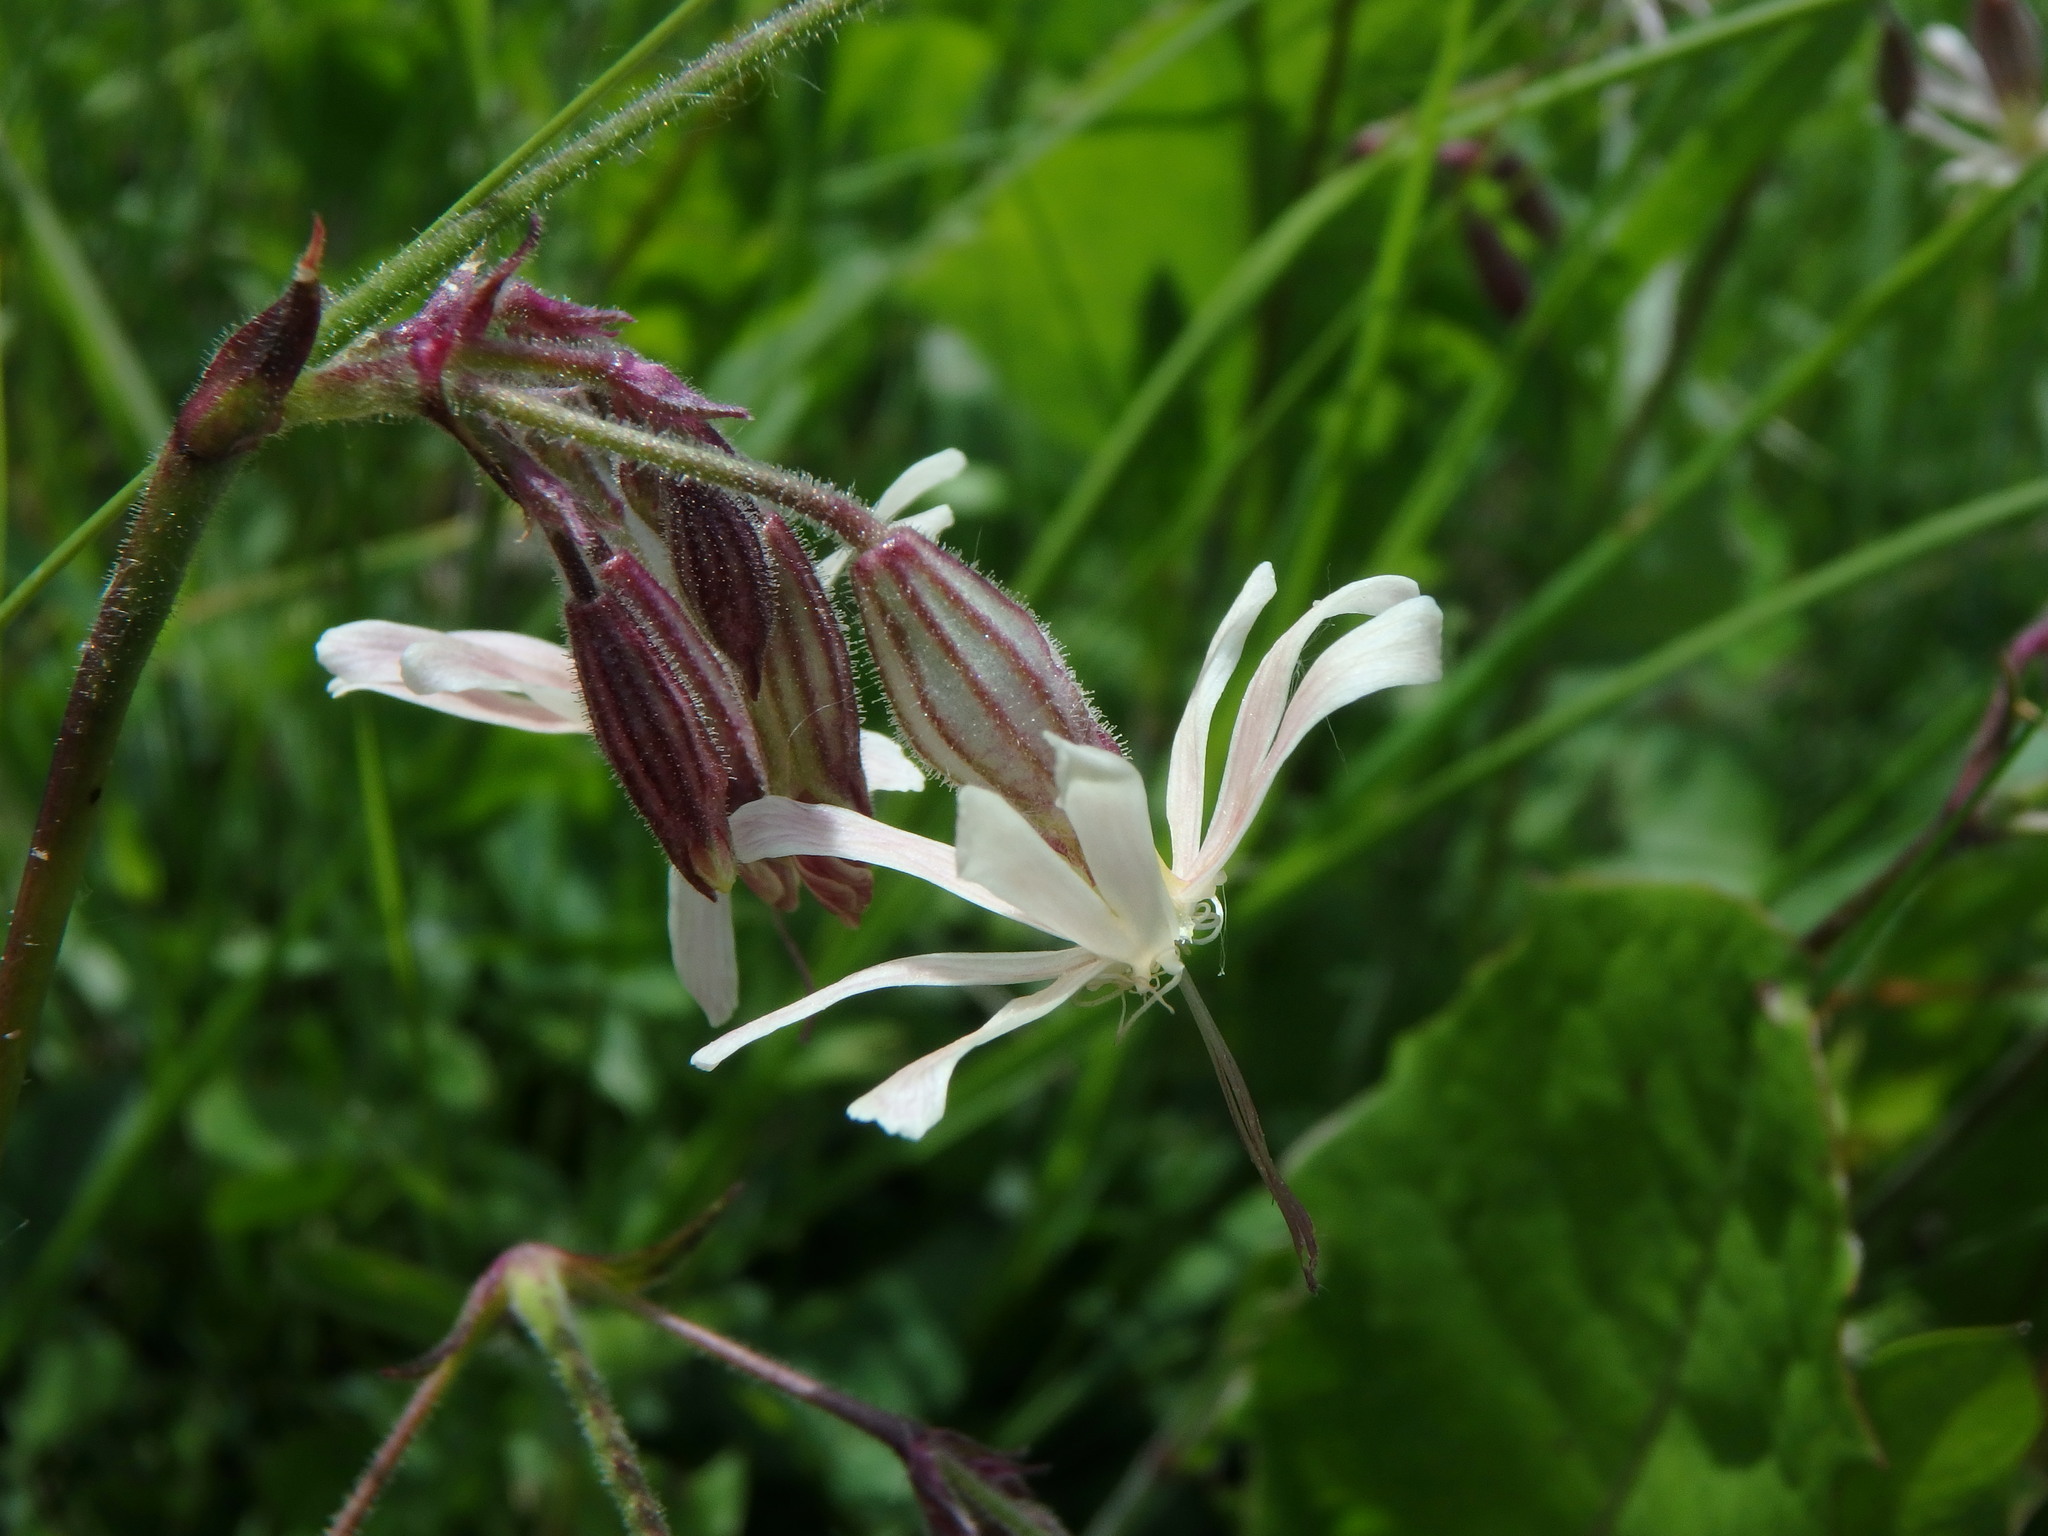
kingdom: Plantae
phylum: Tracheophyta
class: Magnoliopsida
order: Caryophyllales
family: Caryophyllaceae
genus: Silene
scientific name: Silene latifolia
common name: White campion
